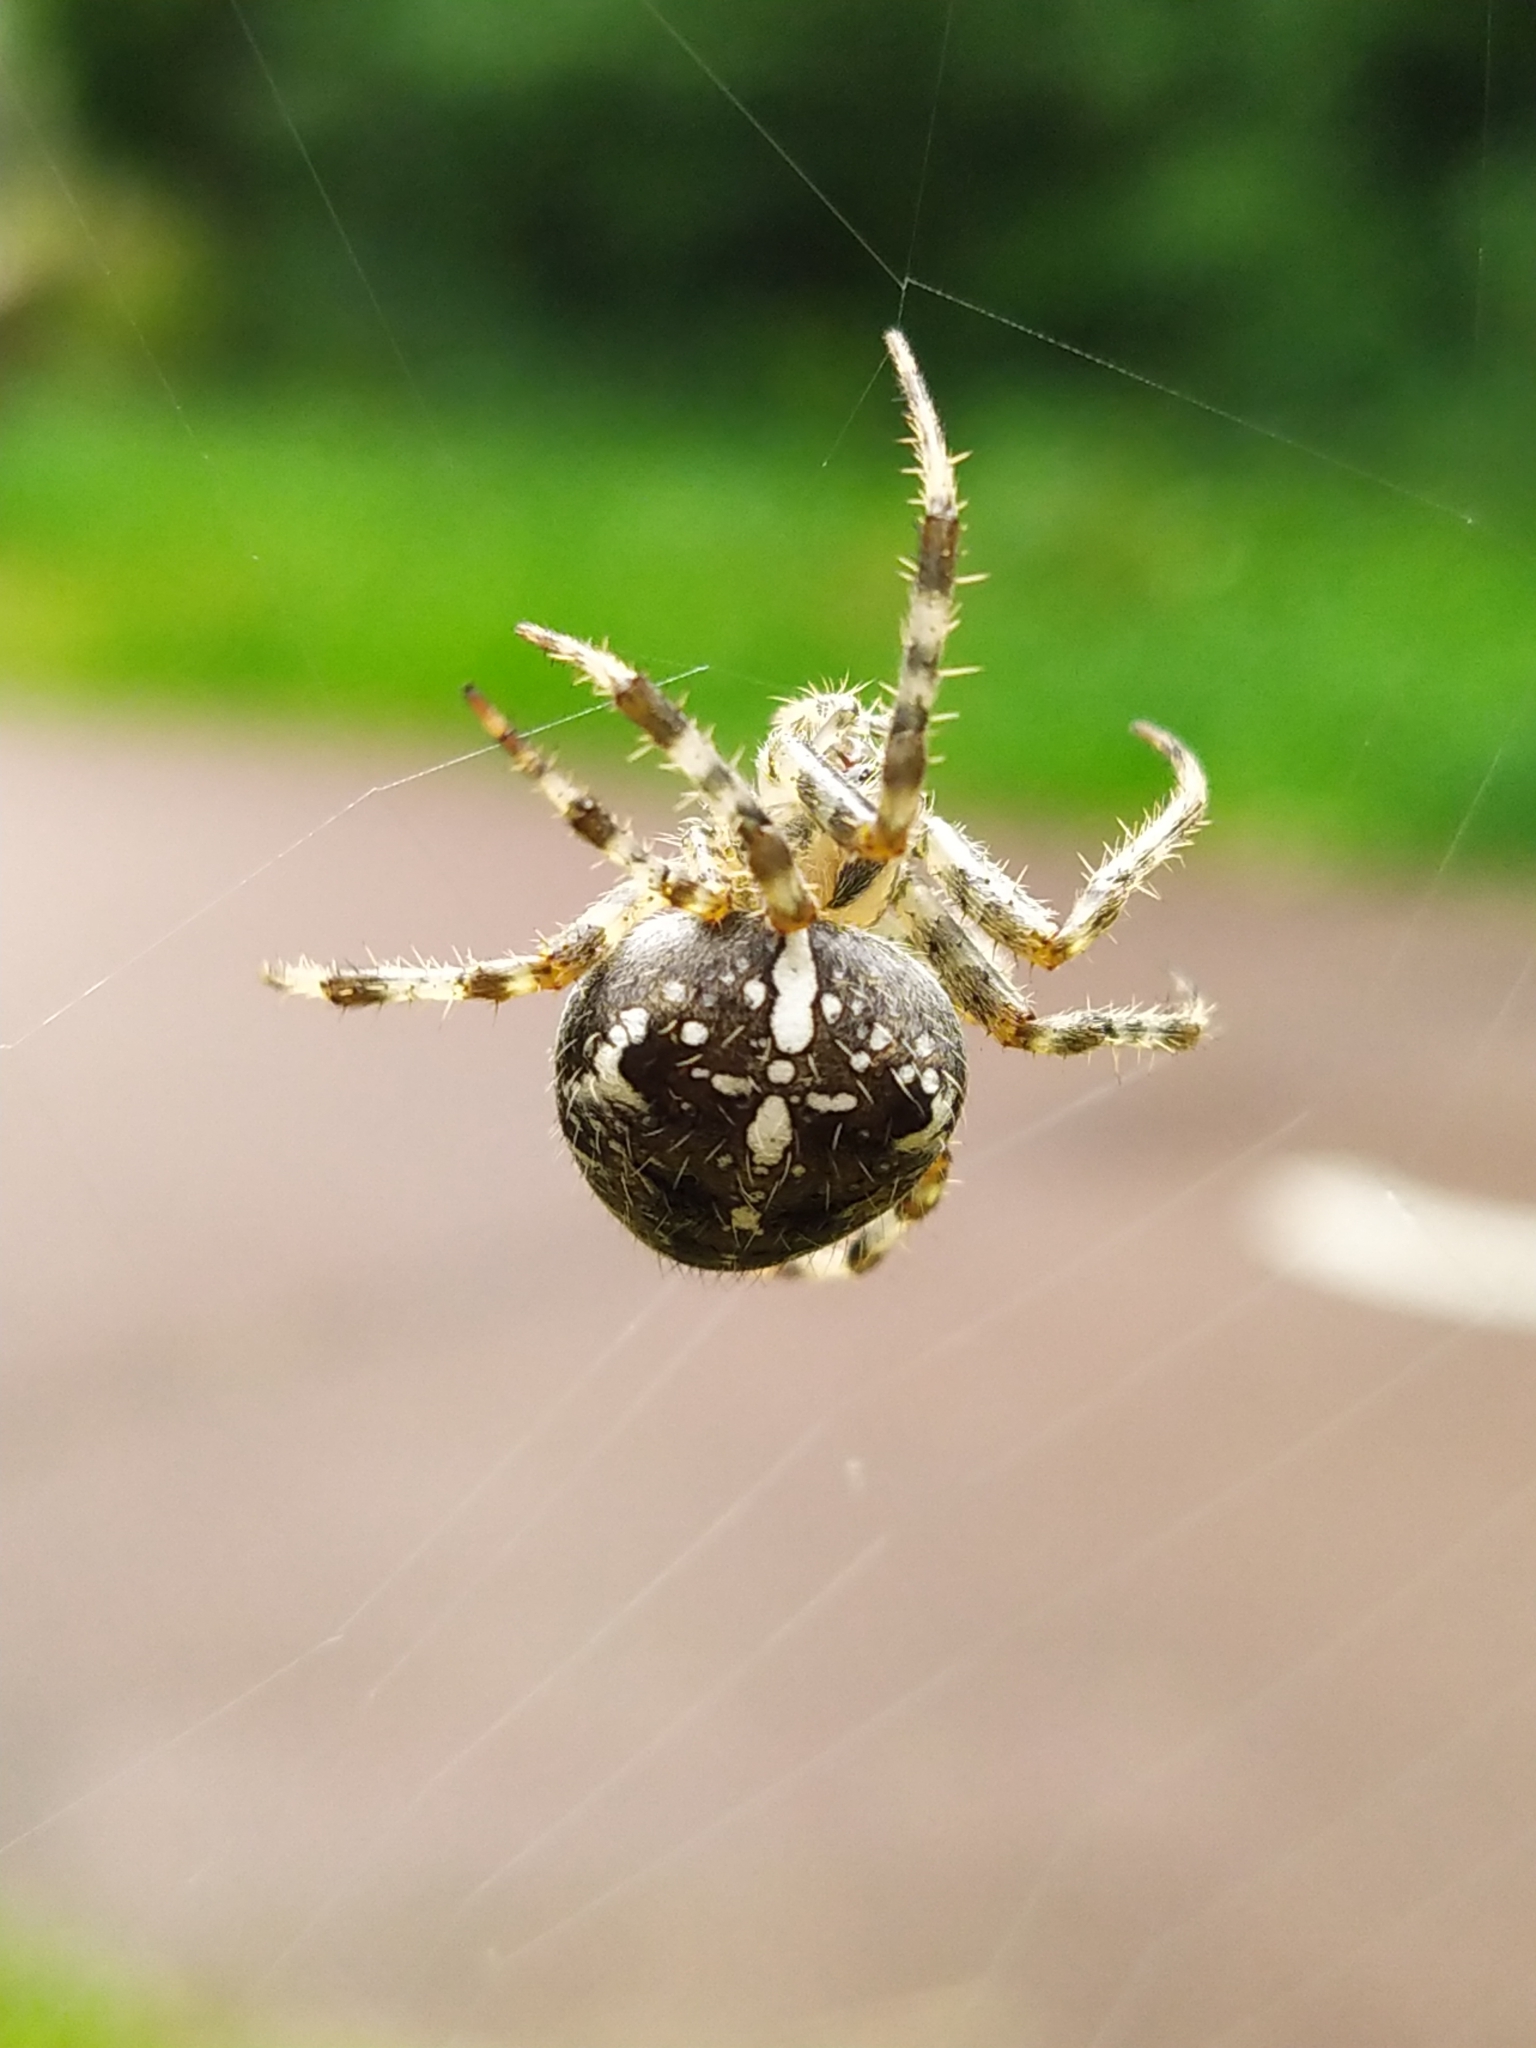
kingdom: Animalia
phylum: Arthropoda
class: Arachnida
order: Araneae
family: Araneidae
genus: Araneus
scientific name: Araneus diadematus
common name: Cross orbweaver
